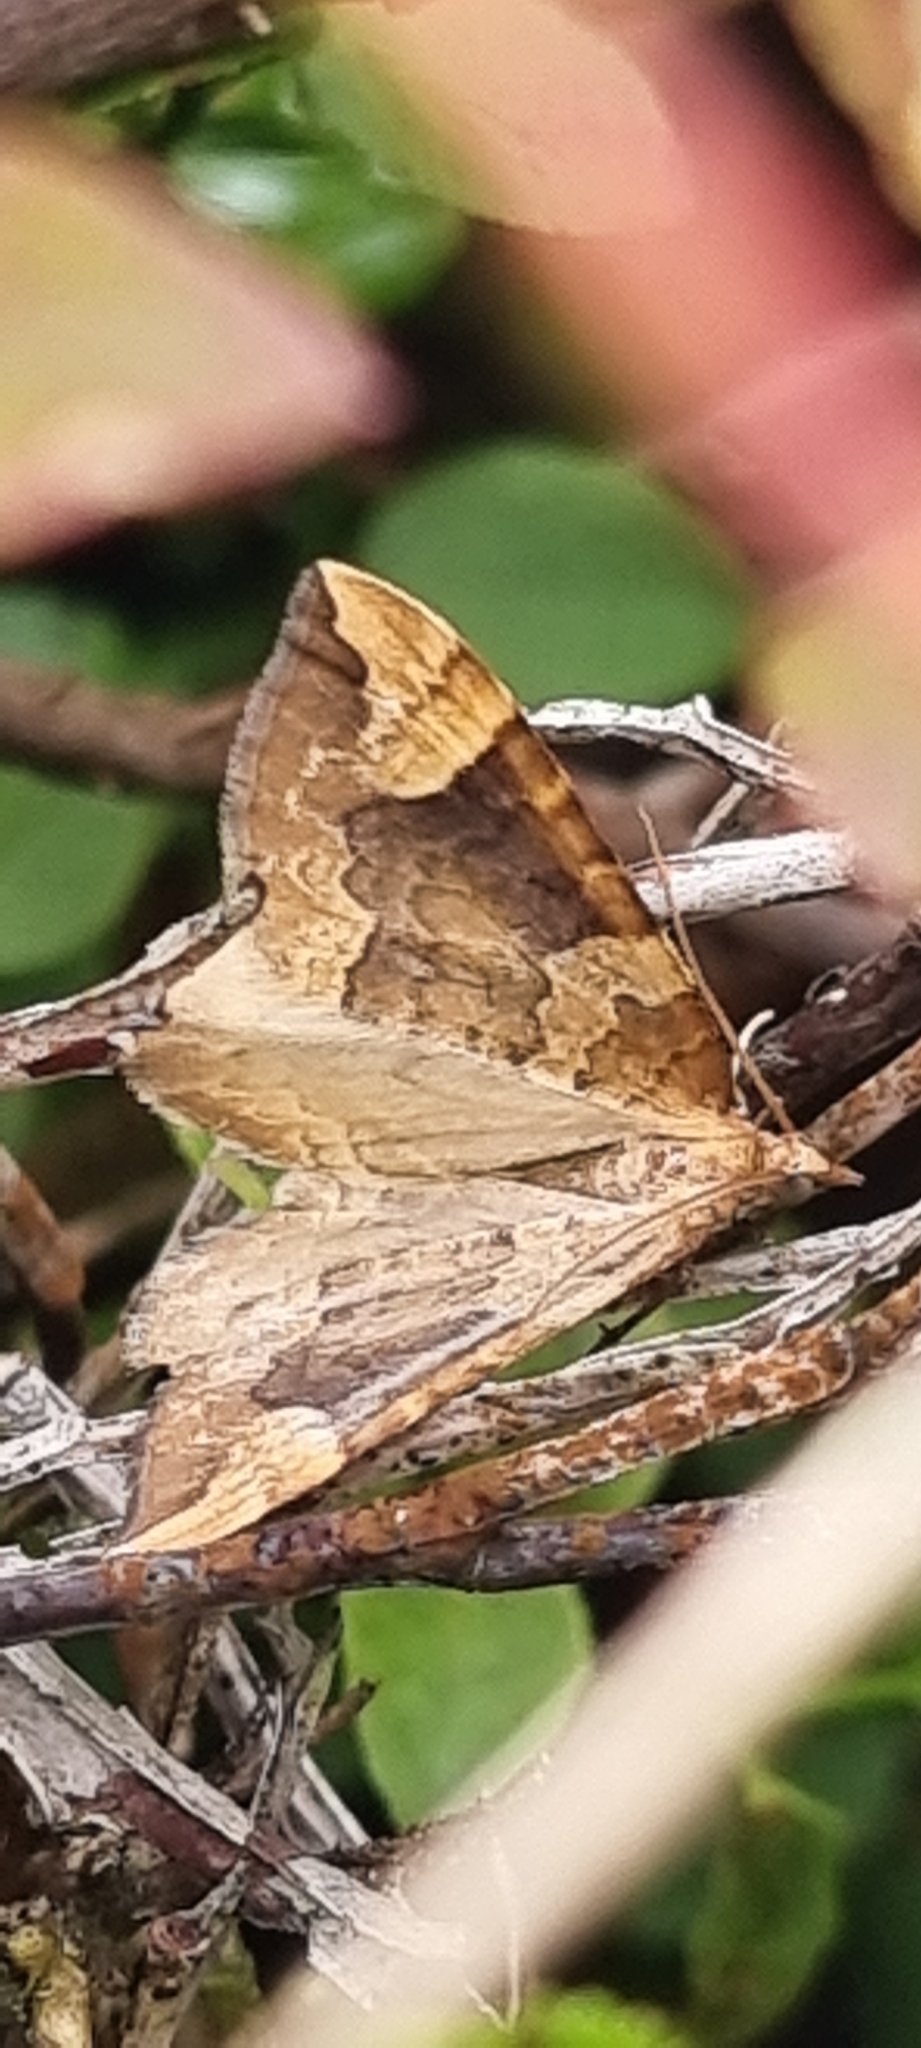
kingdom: Animalia
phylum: Arthropoda
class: Insecta
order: Lepidoptera
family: Geometridae
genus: Eulithis
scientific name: Eulithis populata
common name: Northern spinach
